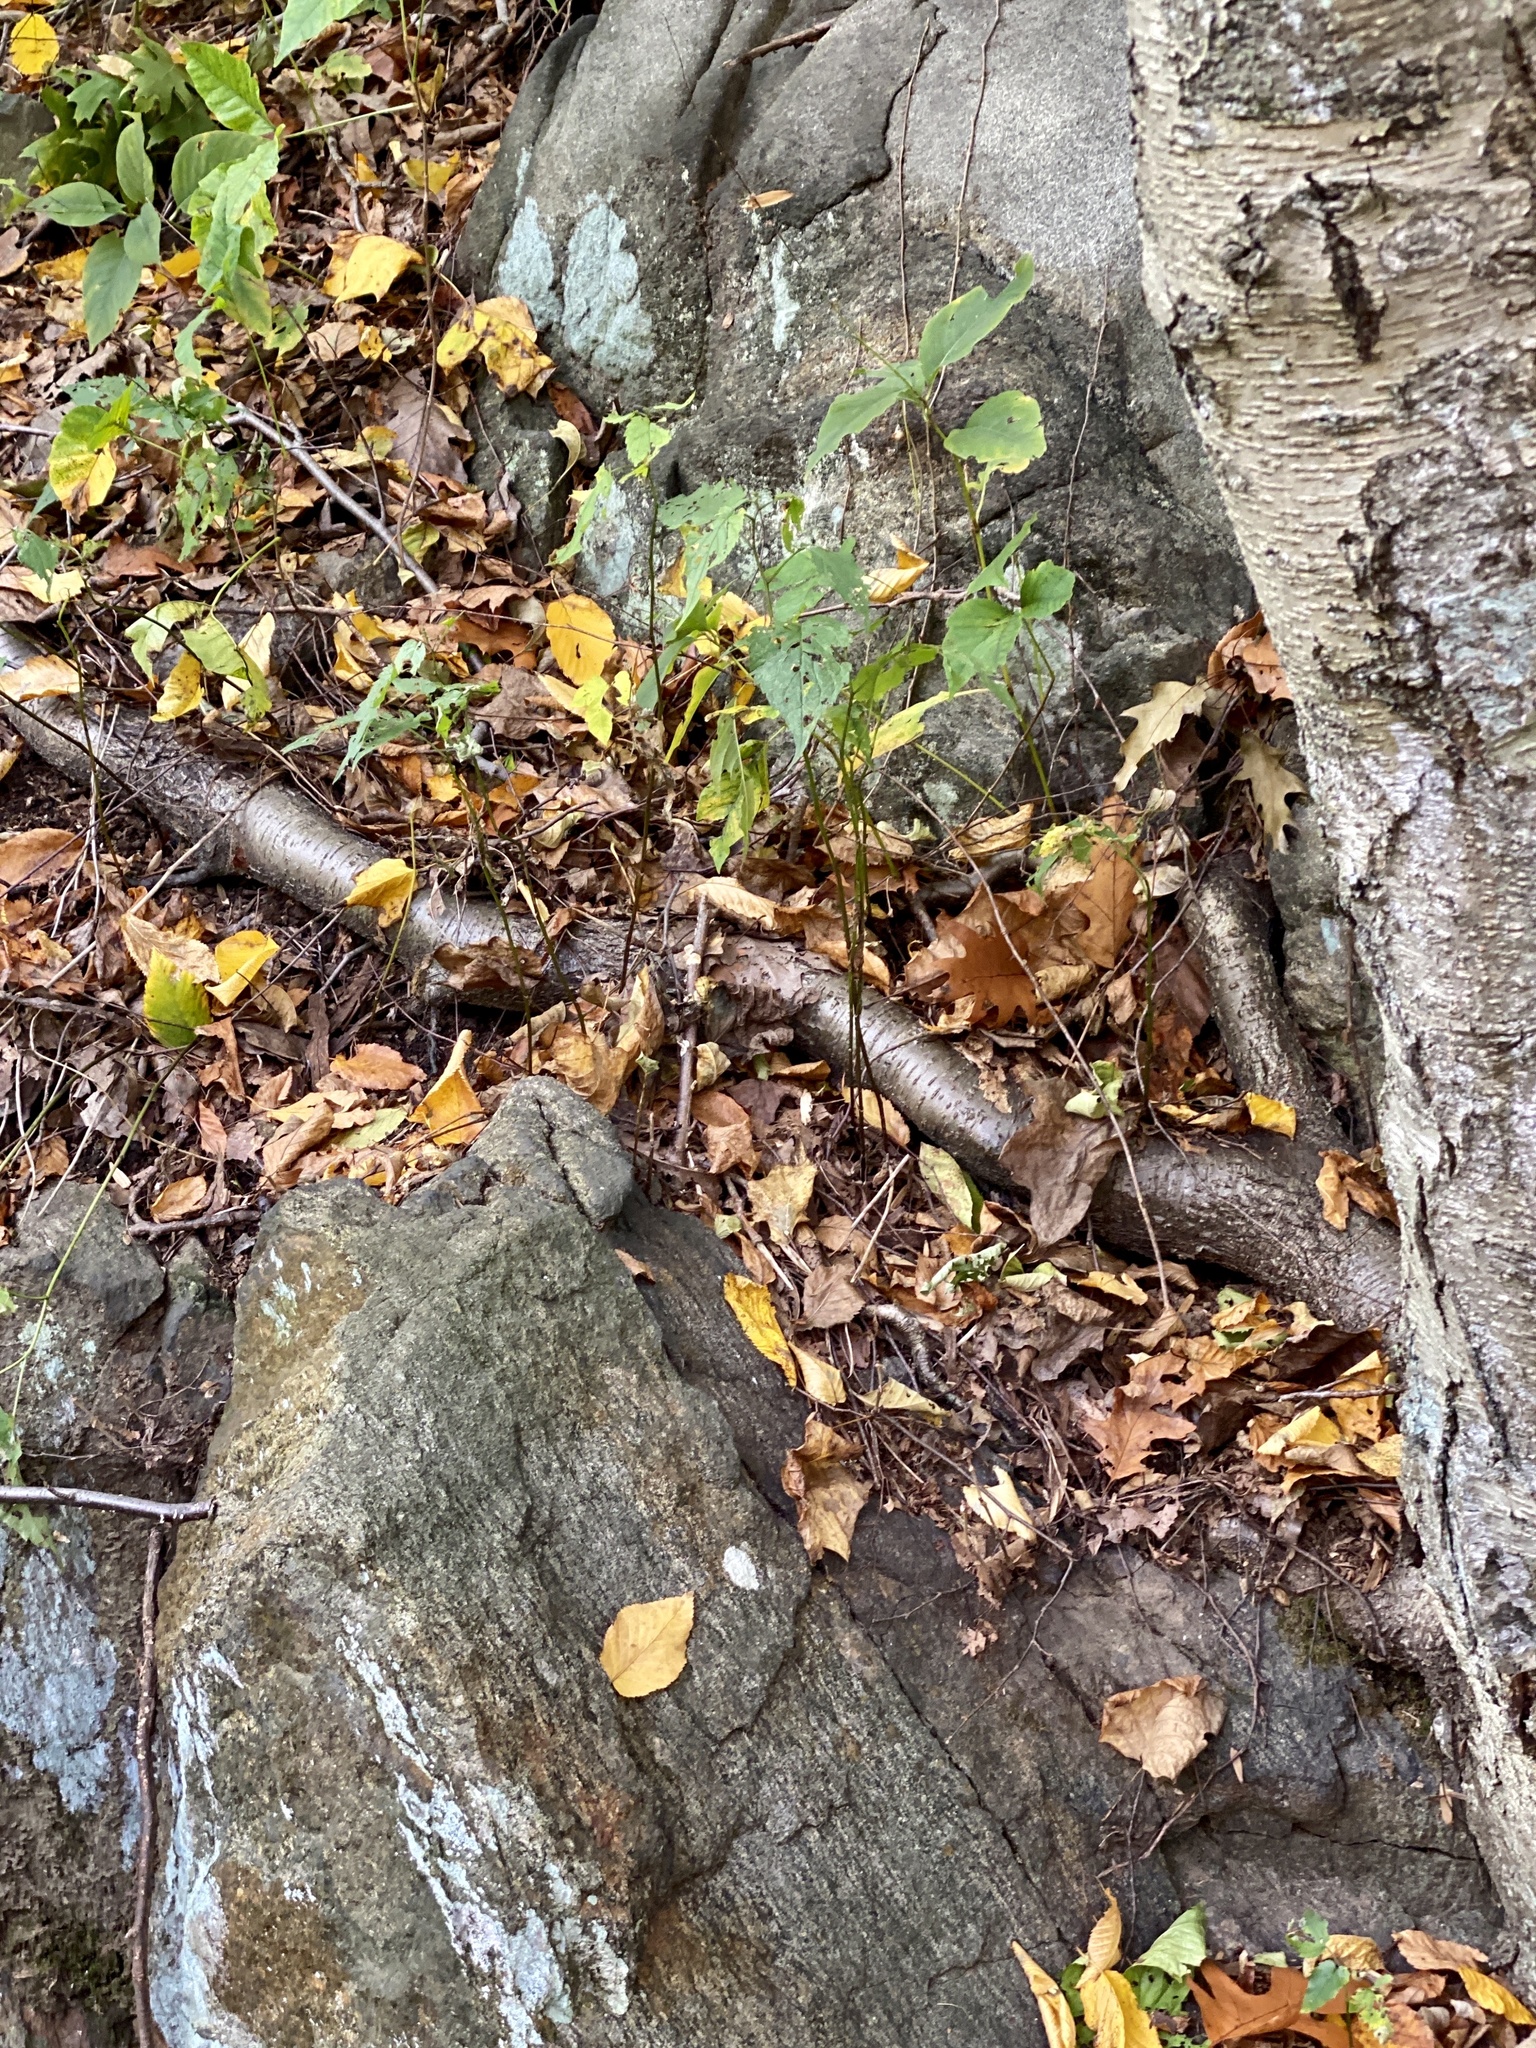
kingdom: Plantae
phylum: Tracheophyta
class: Magnoliopsida
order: Fagales
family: Betulaceae
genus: Betula
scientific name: Betula lenta
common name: Black birch
